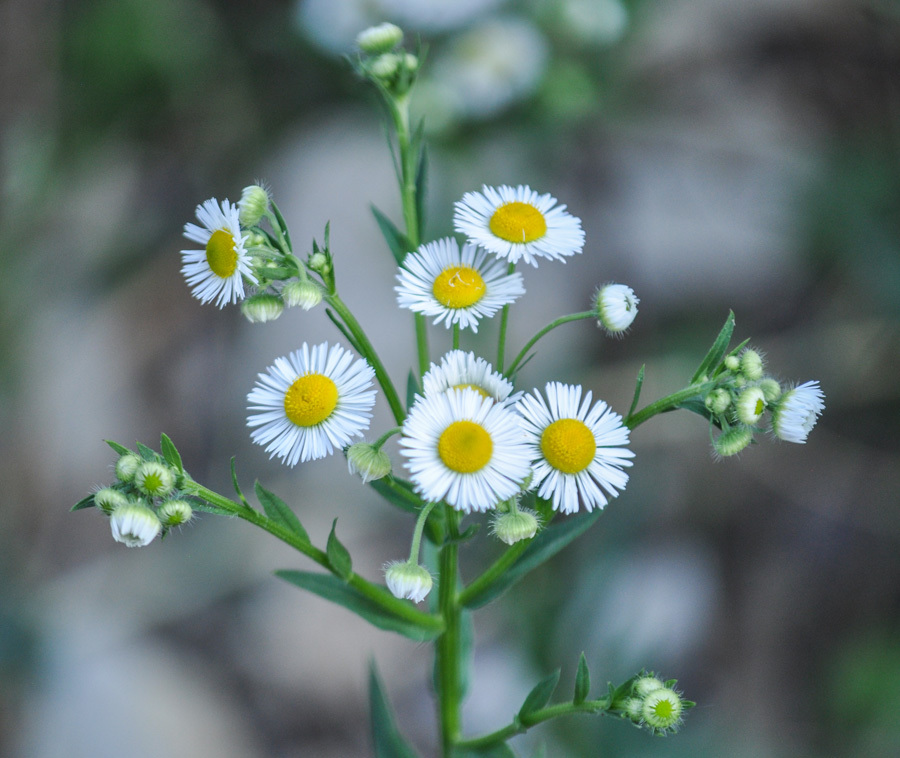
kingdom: Plantae
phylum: Tracheophyta
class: Magnoliopsida
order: Asterales
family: Asteraceae
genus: Erigeron
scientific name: Erigeron annuus
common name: Tall fleabane
